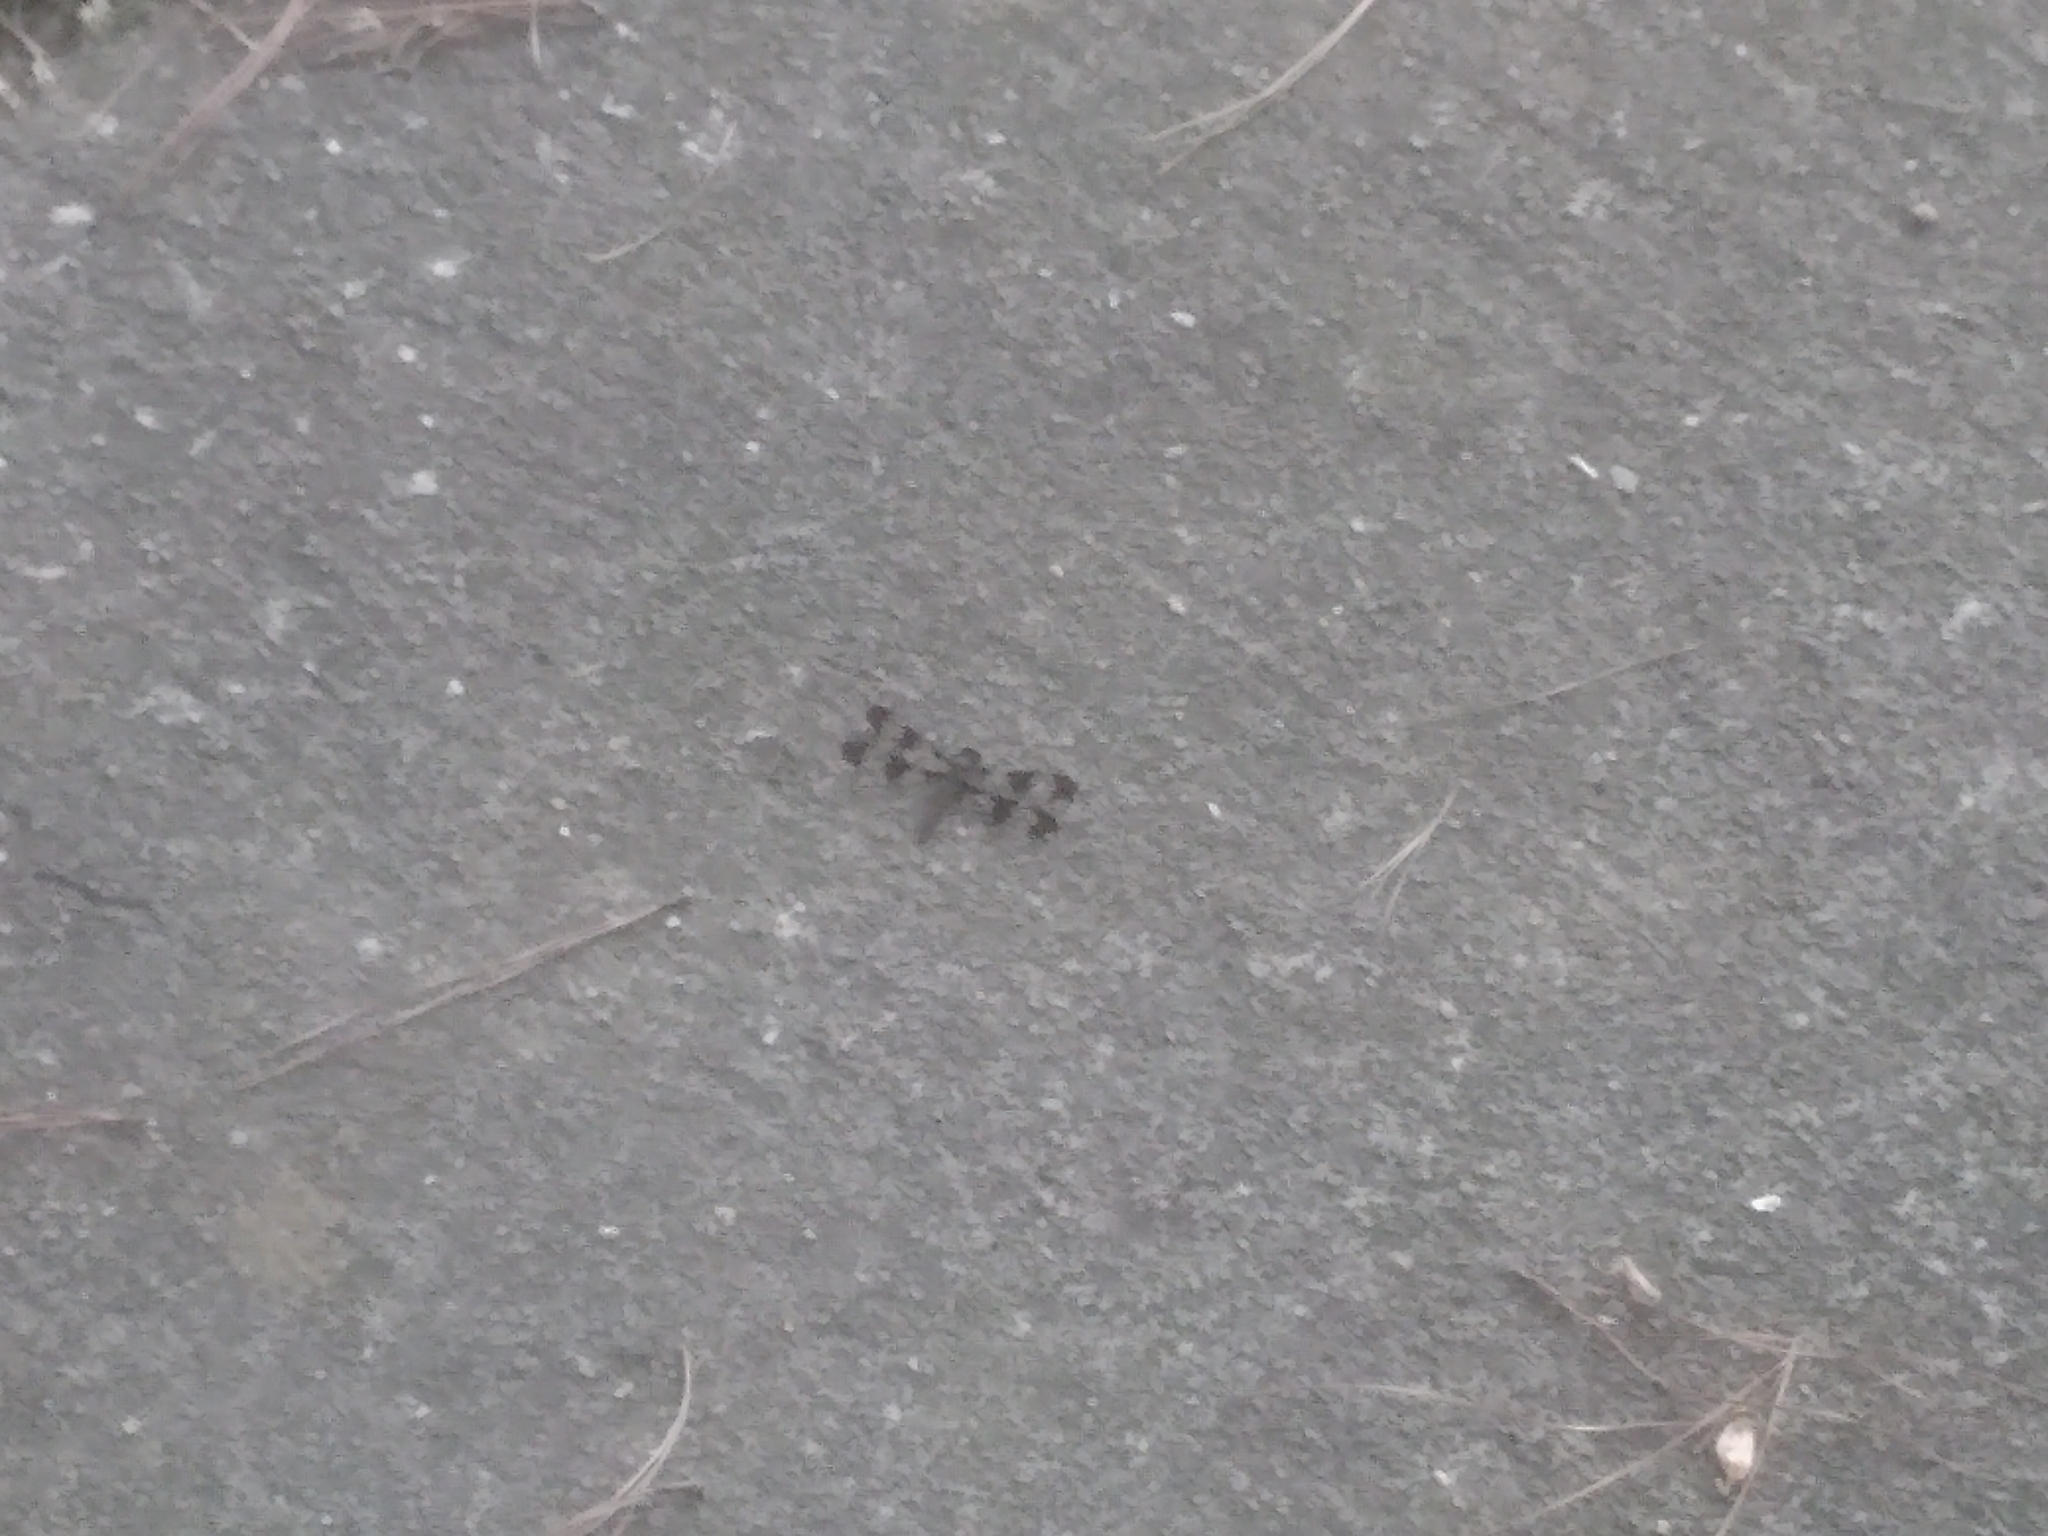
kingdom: Animalia
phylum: Arthropoda
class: Insecta
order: Odonata
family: Libellulidae
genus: Plathemis
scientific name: Plathemis lydia
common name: Common whitetail
